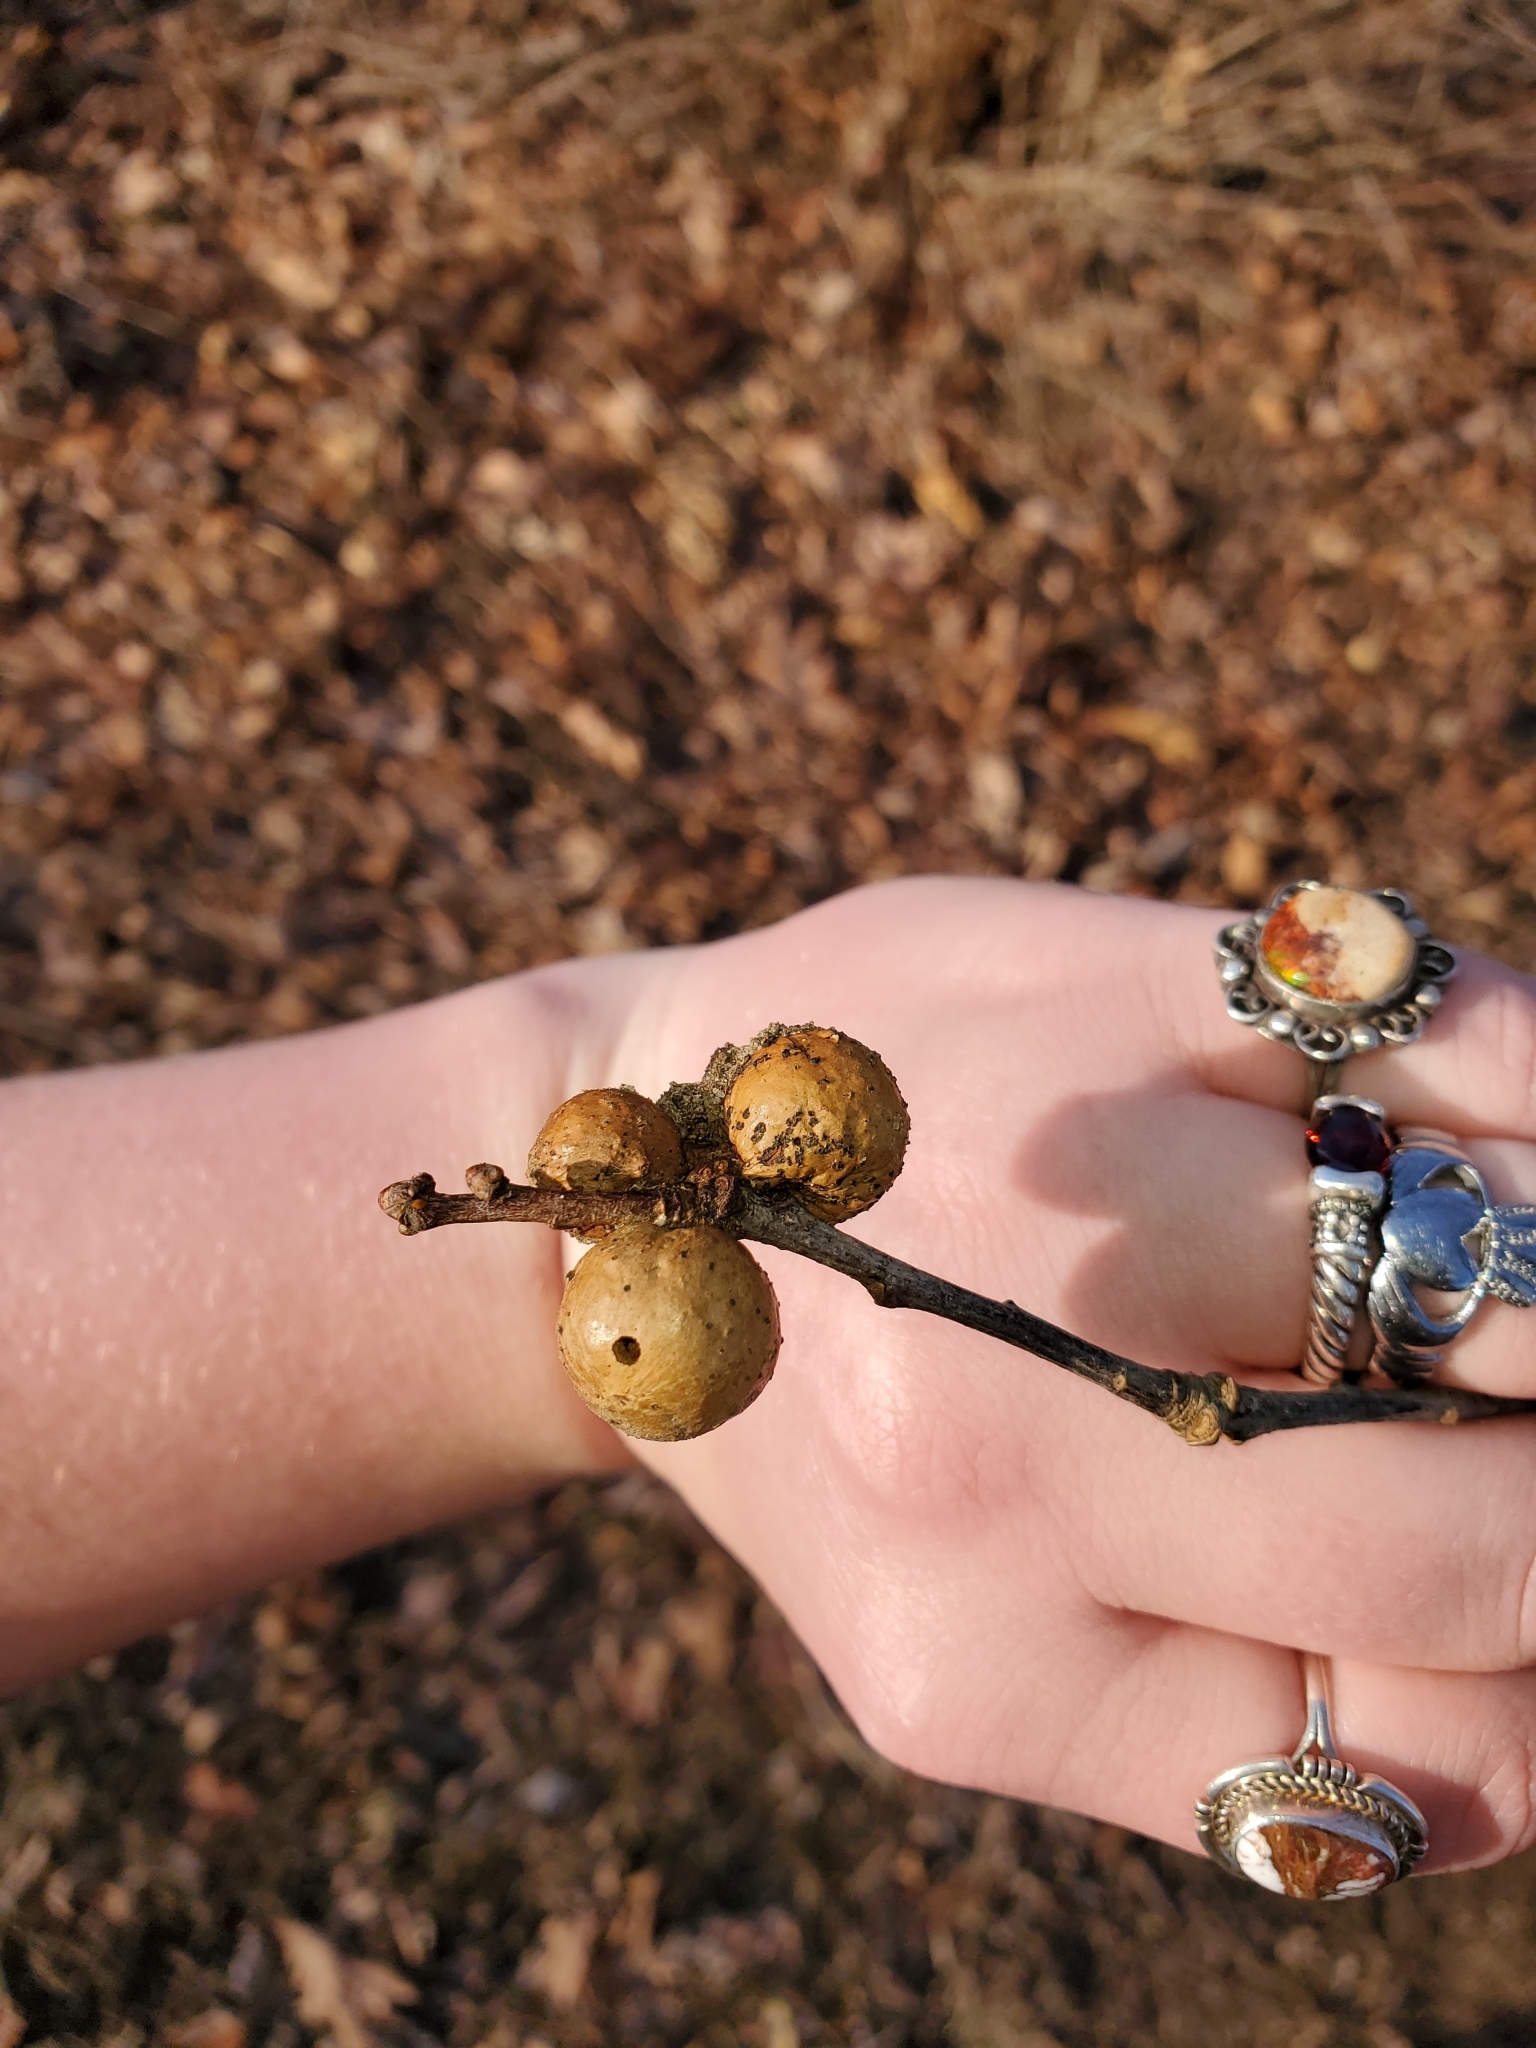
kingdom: Animalia
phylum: Arthropoda
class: Insecta
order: Hymenoptera
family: Cynipidae
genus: Disholcaspis
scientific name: Disholcaspis quercusglobulus
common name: Round bullet gall wasp
